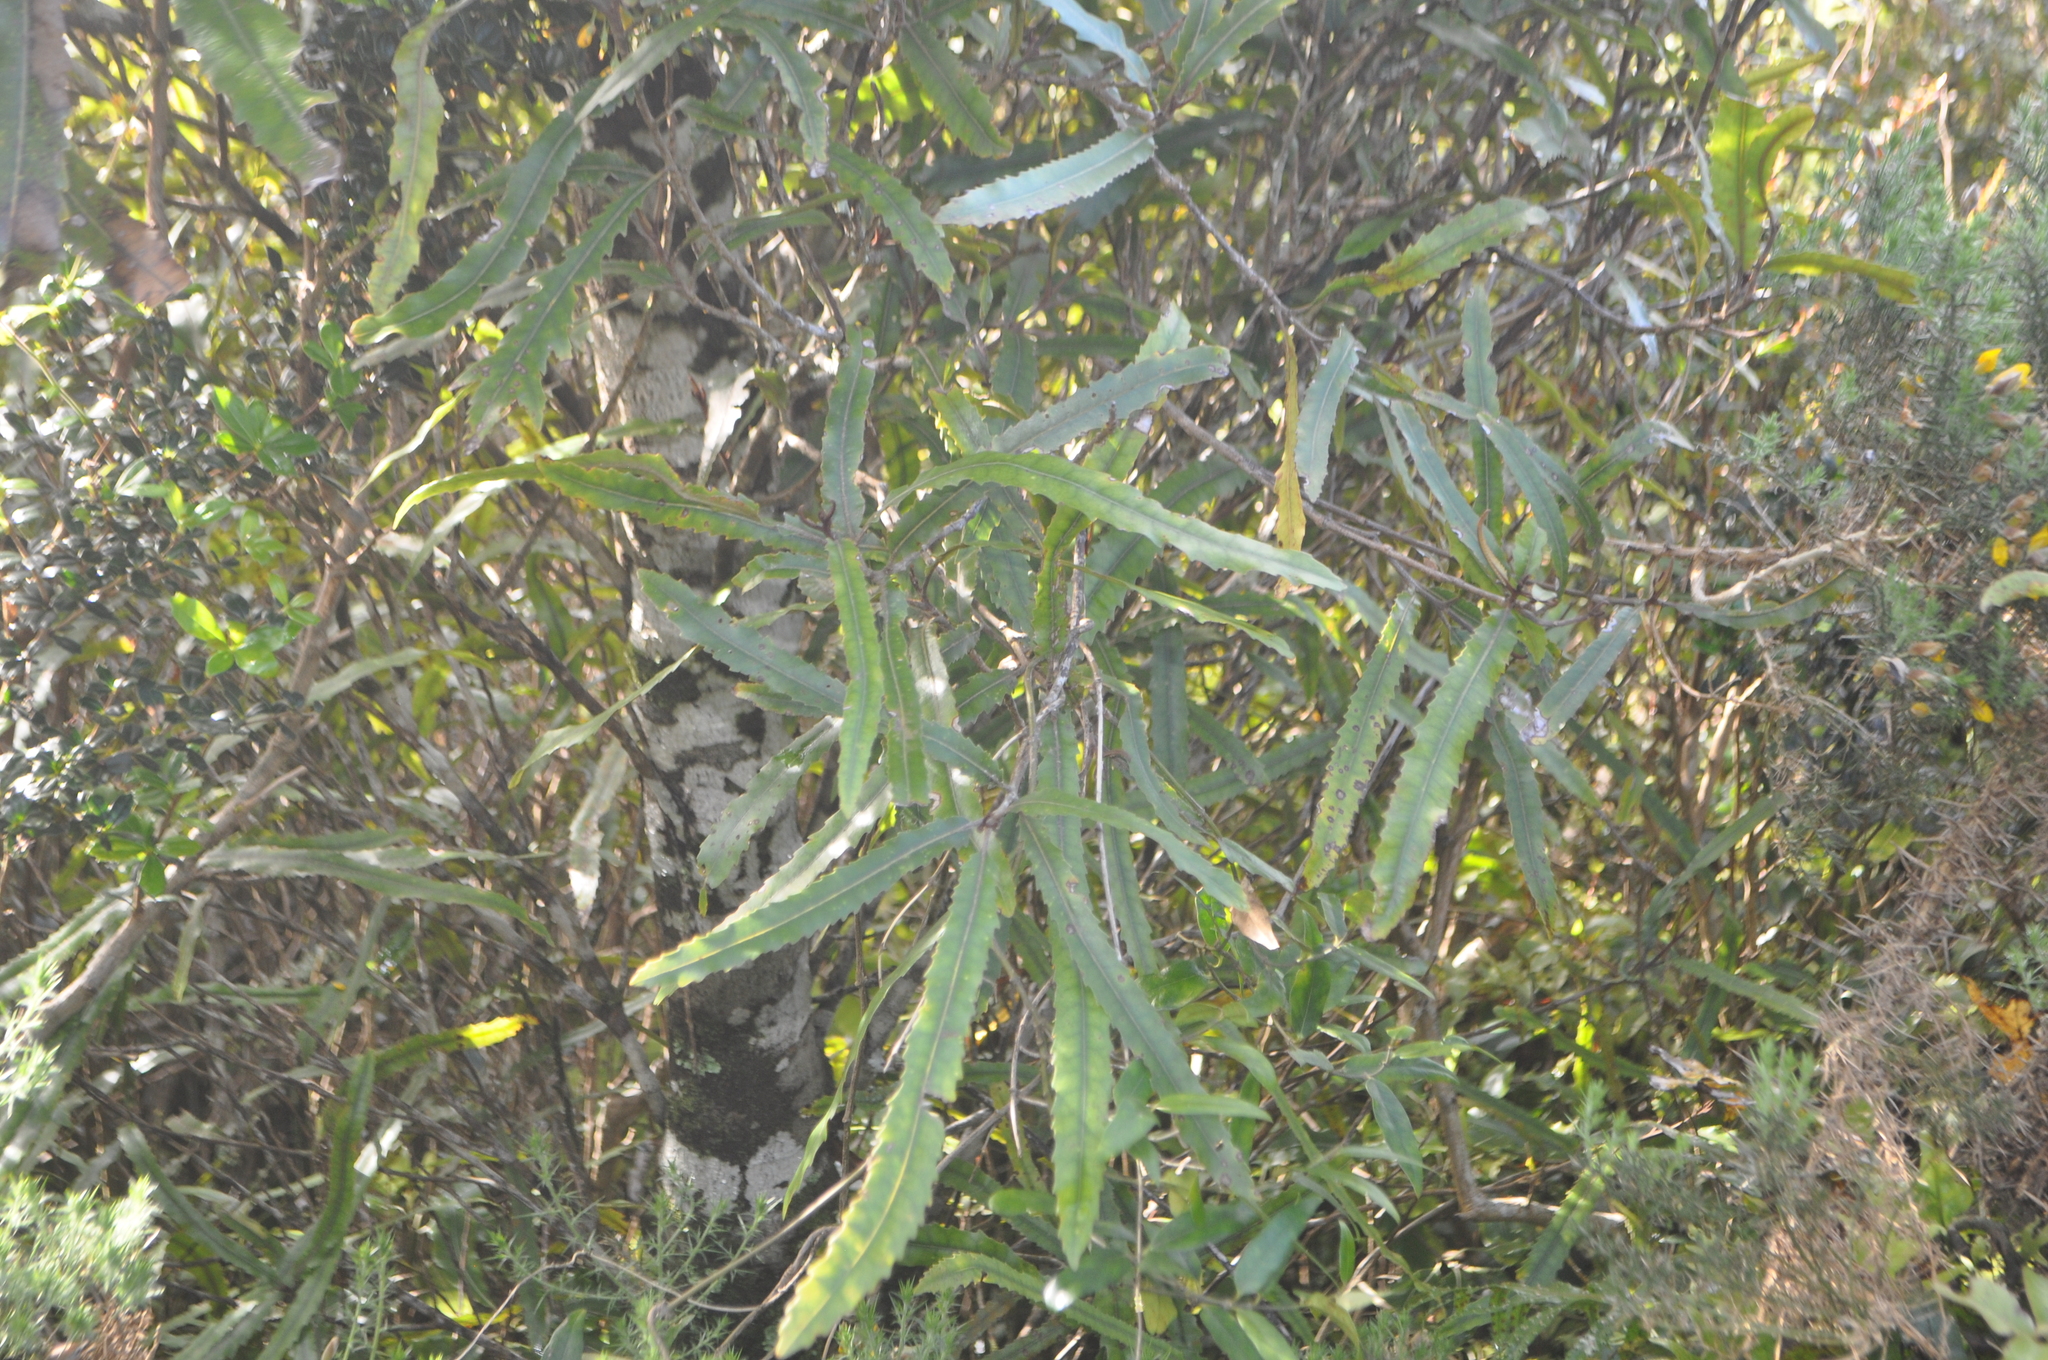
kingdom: Plantae
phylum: Tracheophyta
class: Magnoliopsida
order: Proteales
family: Proteaceae
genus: Knightia
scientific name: Knightia excelsa
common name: New zealand-honeysuckle
